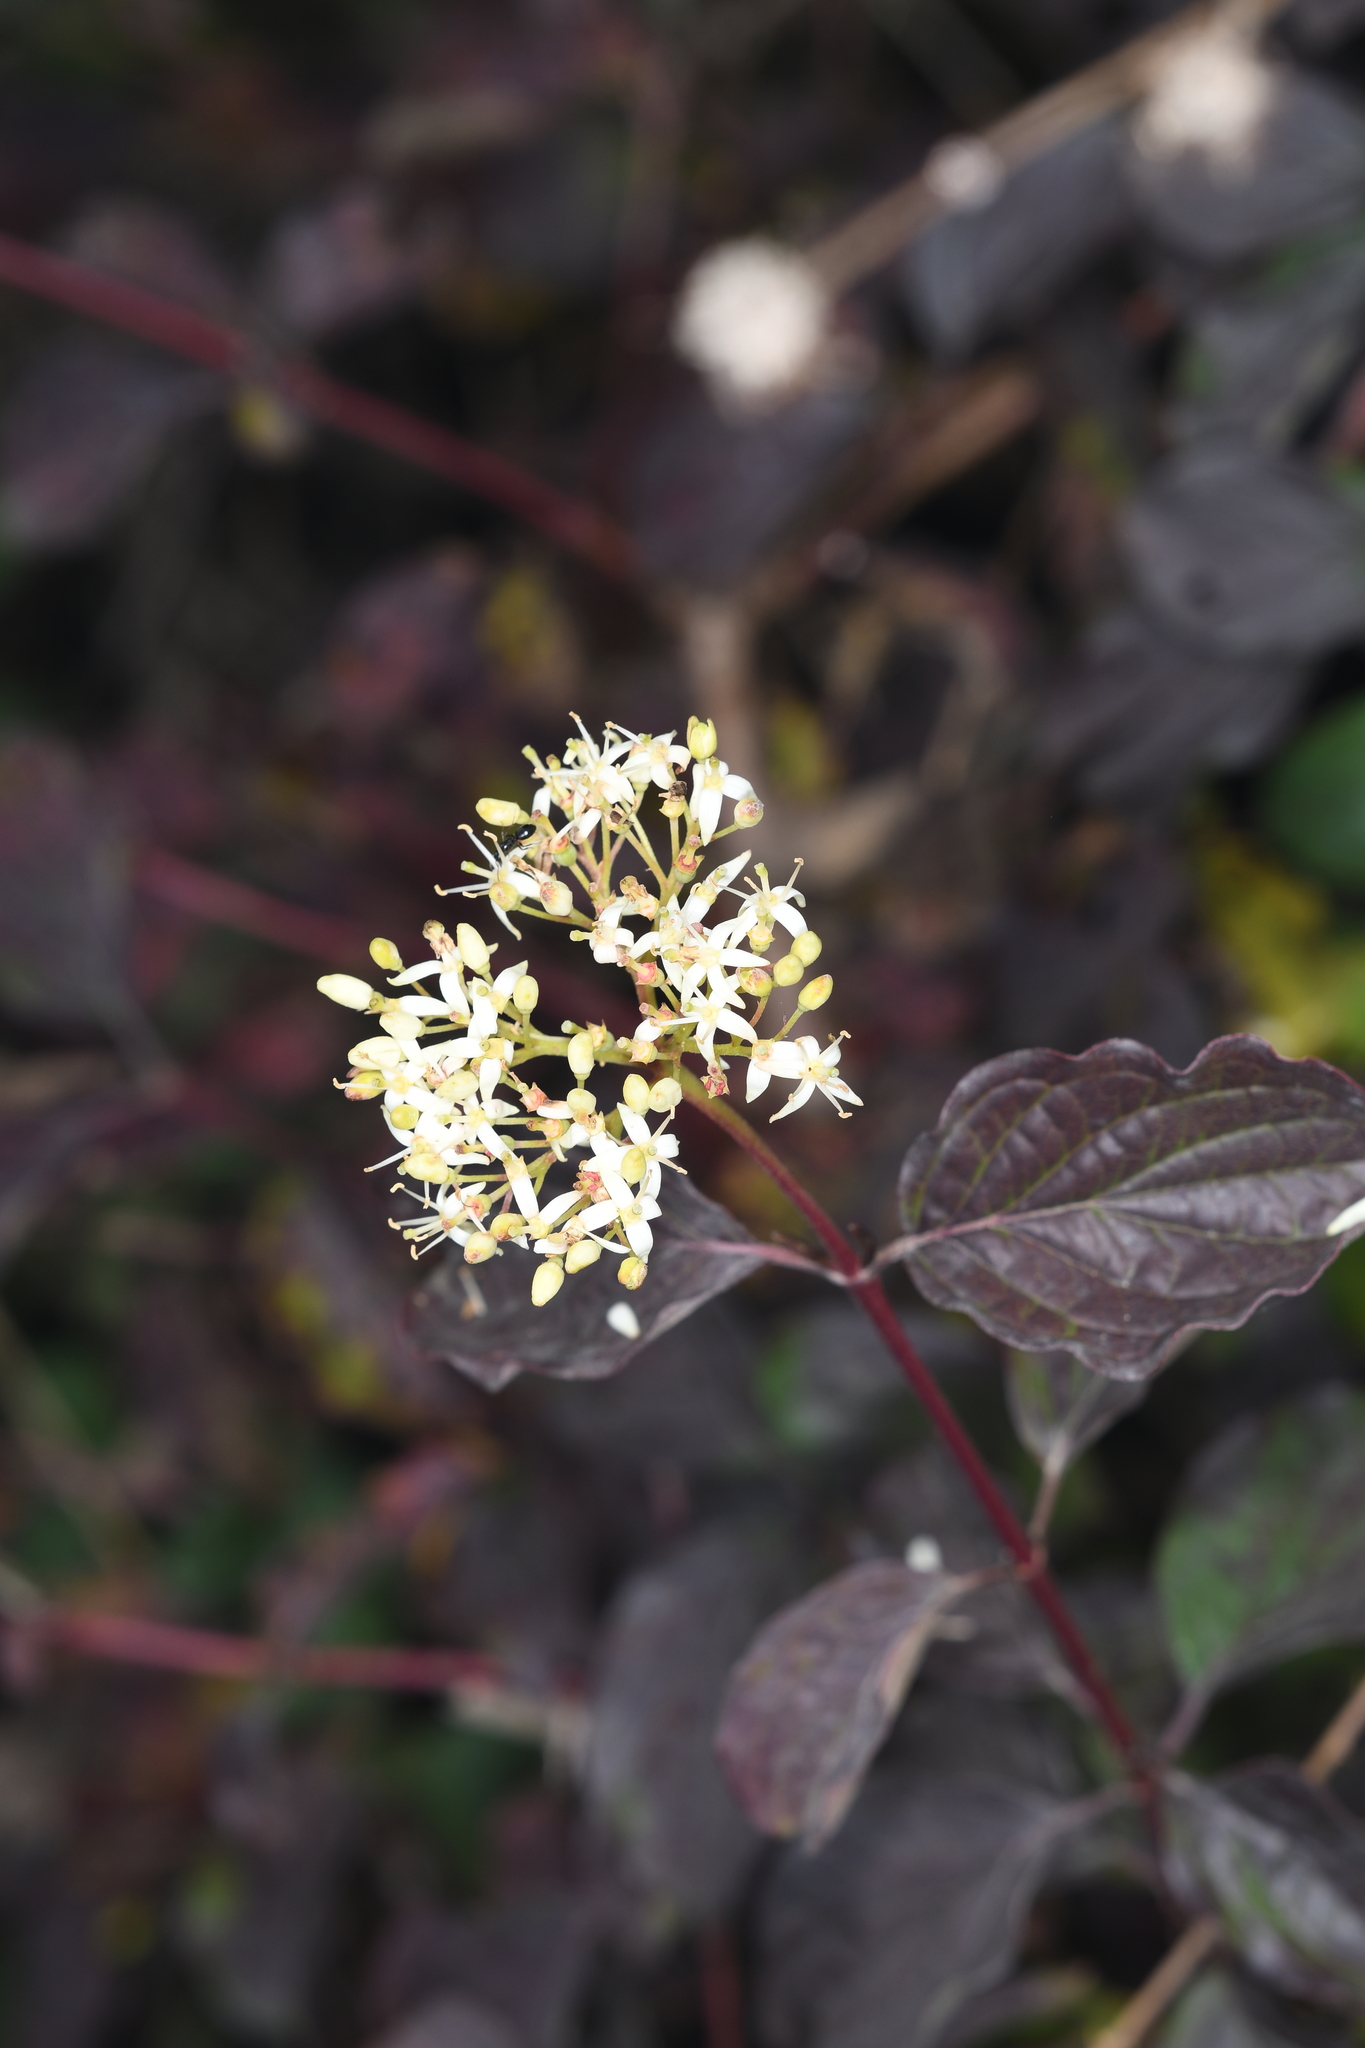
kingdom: Plantae
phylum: Tracheophyta
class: Magnoliopsida
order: Cornales
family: Cornaceae
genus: Cornus
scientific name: Cornus sanguinea
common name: Dogwood
